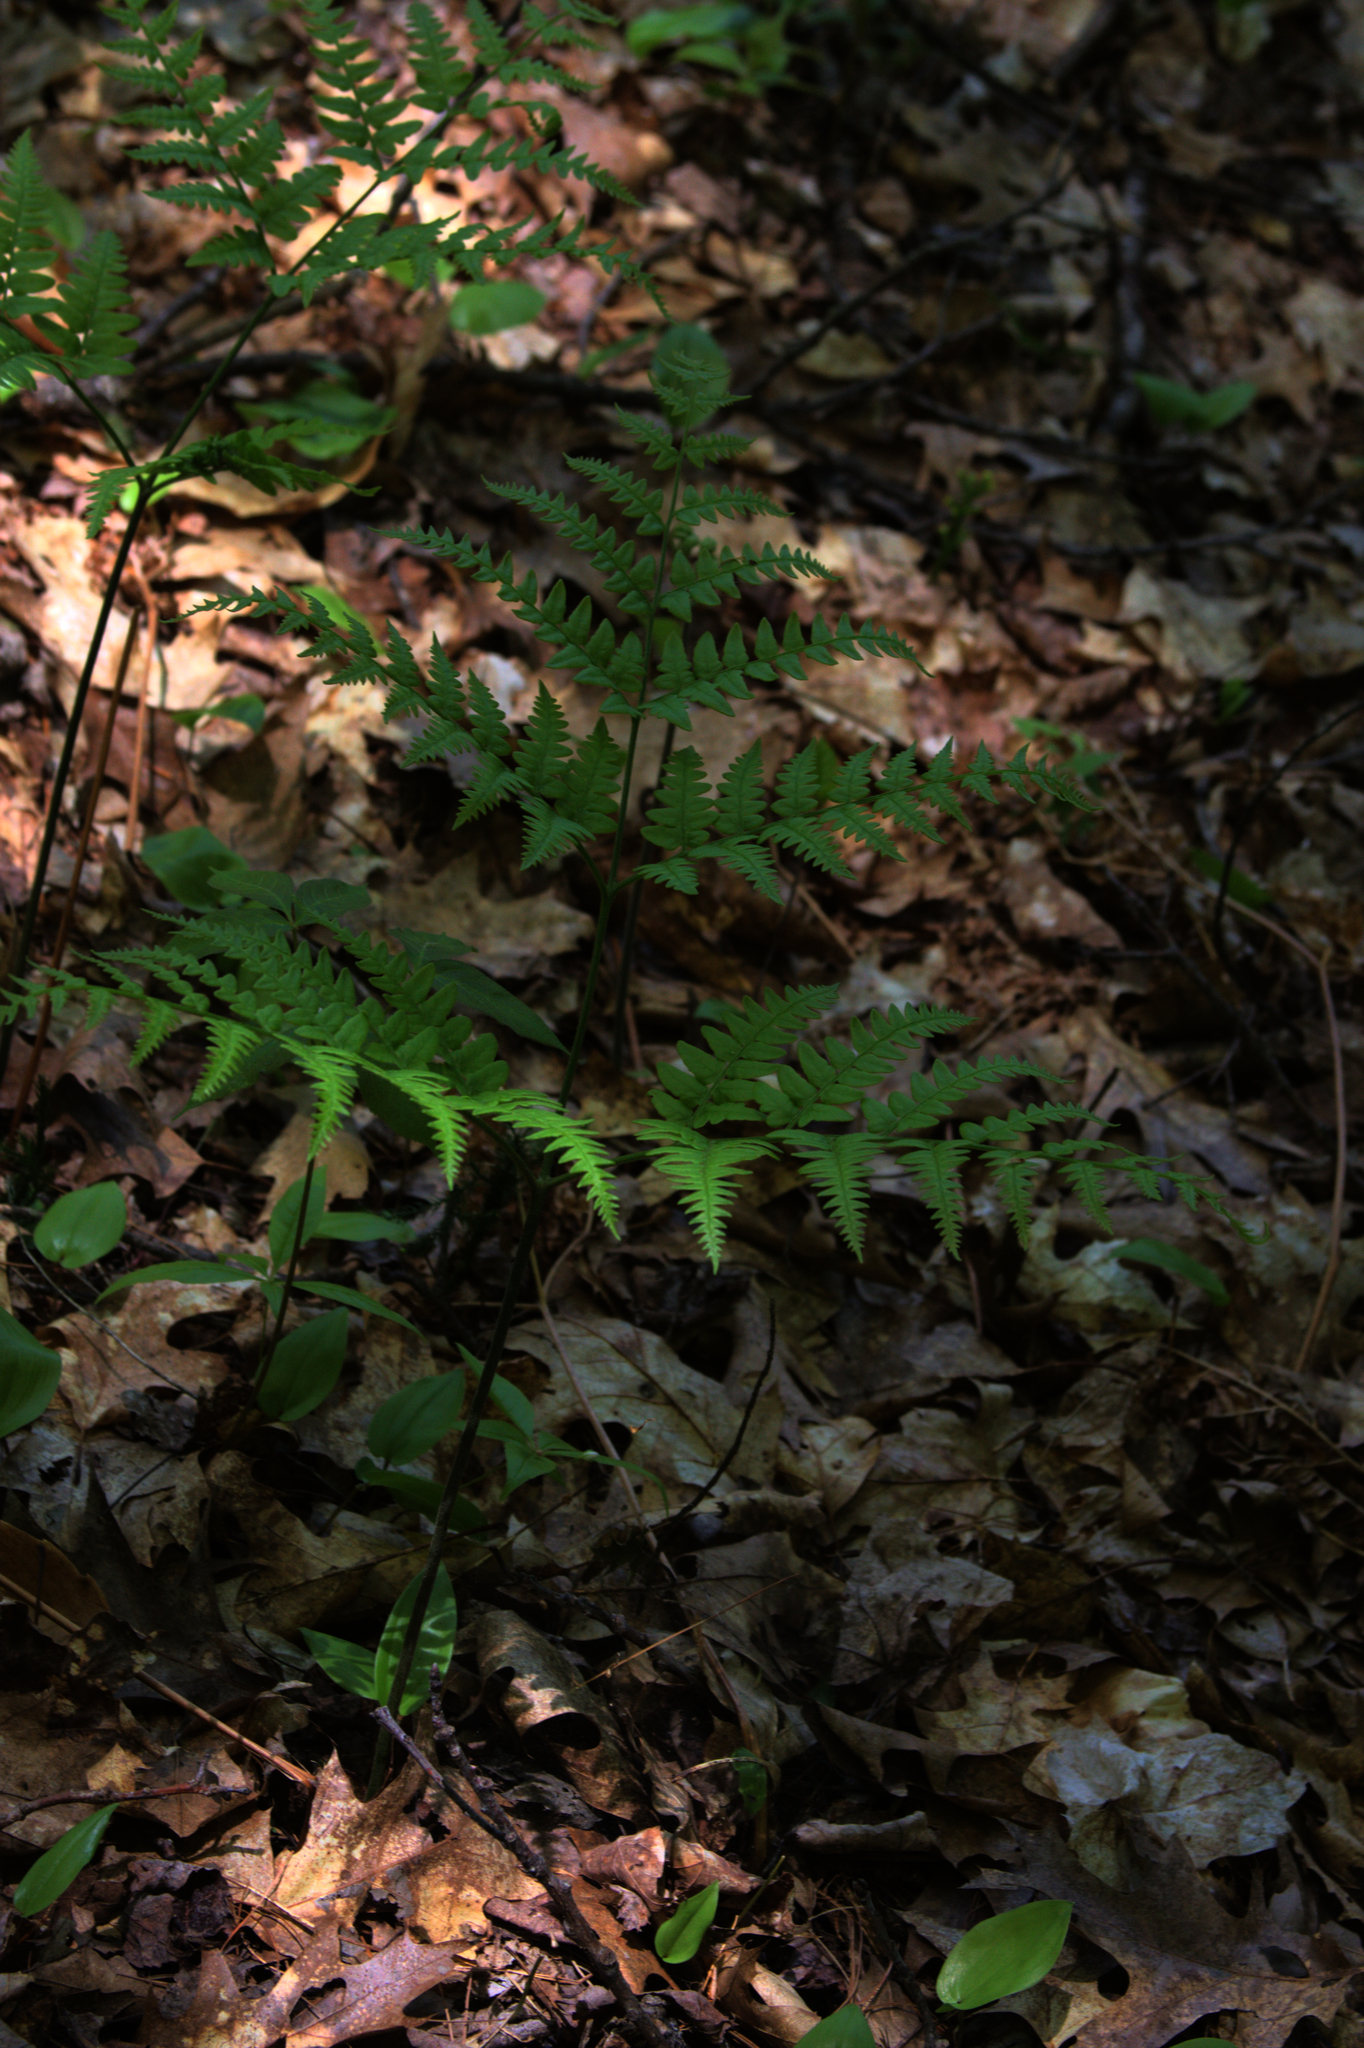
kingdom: Plantae
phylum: Tracheophyta
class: Polypodiopsida
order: Polypodiales
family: Dennstaedtiaceae
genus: Pteridium
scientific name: Pteridium aquilinum
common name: Bracken
